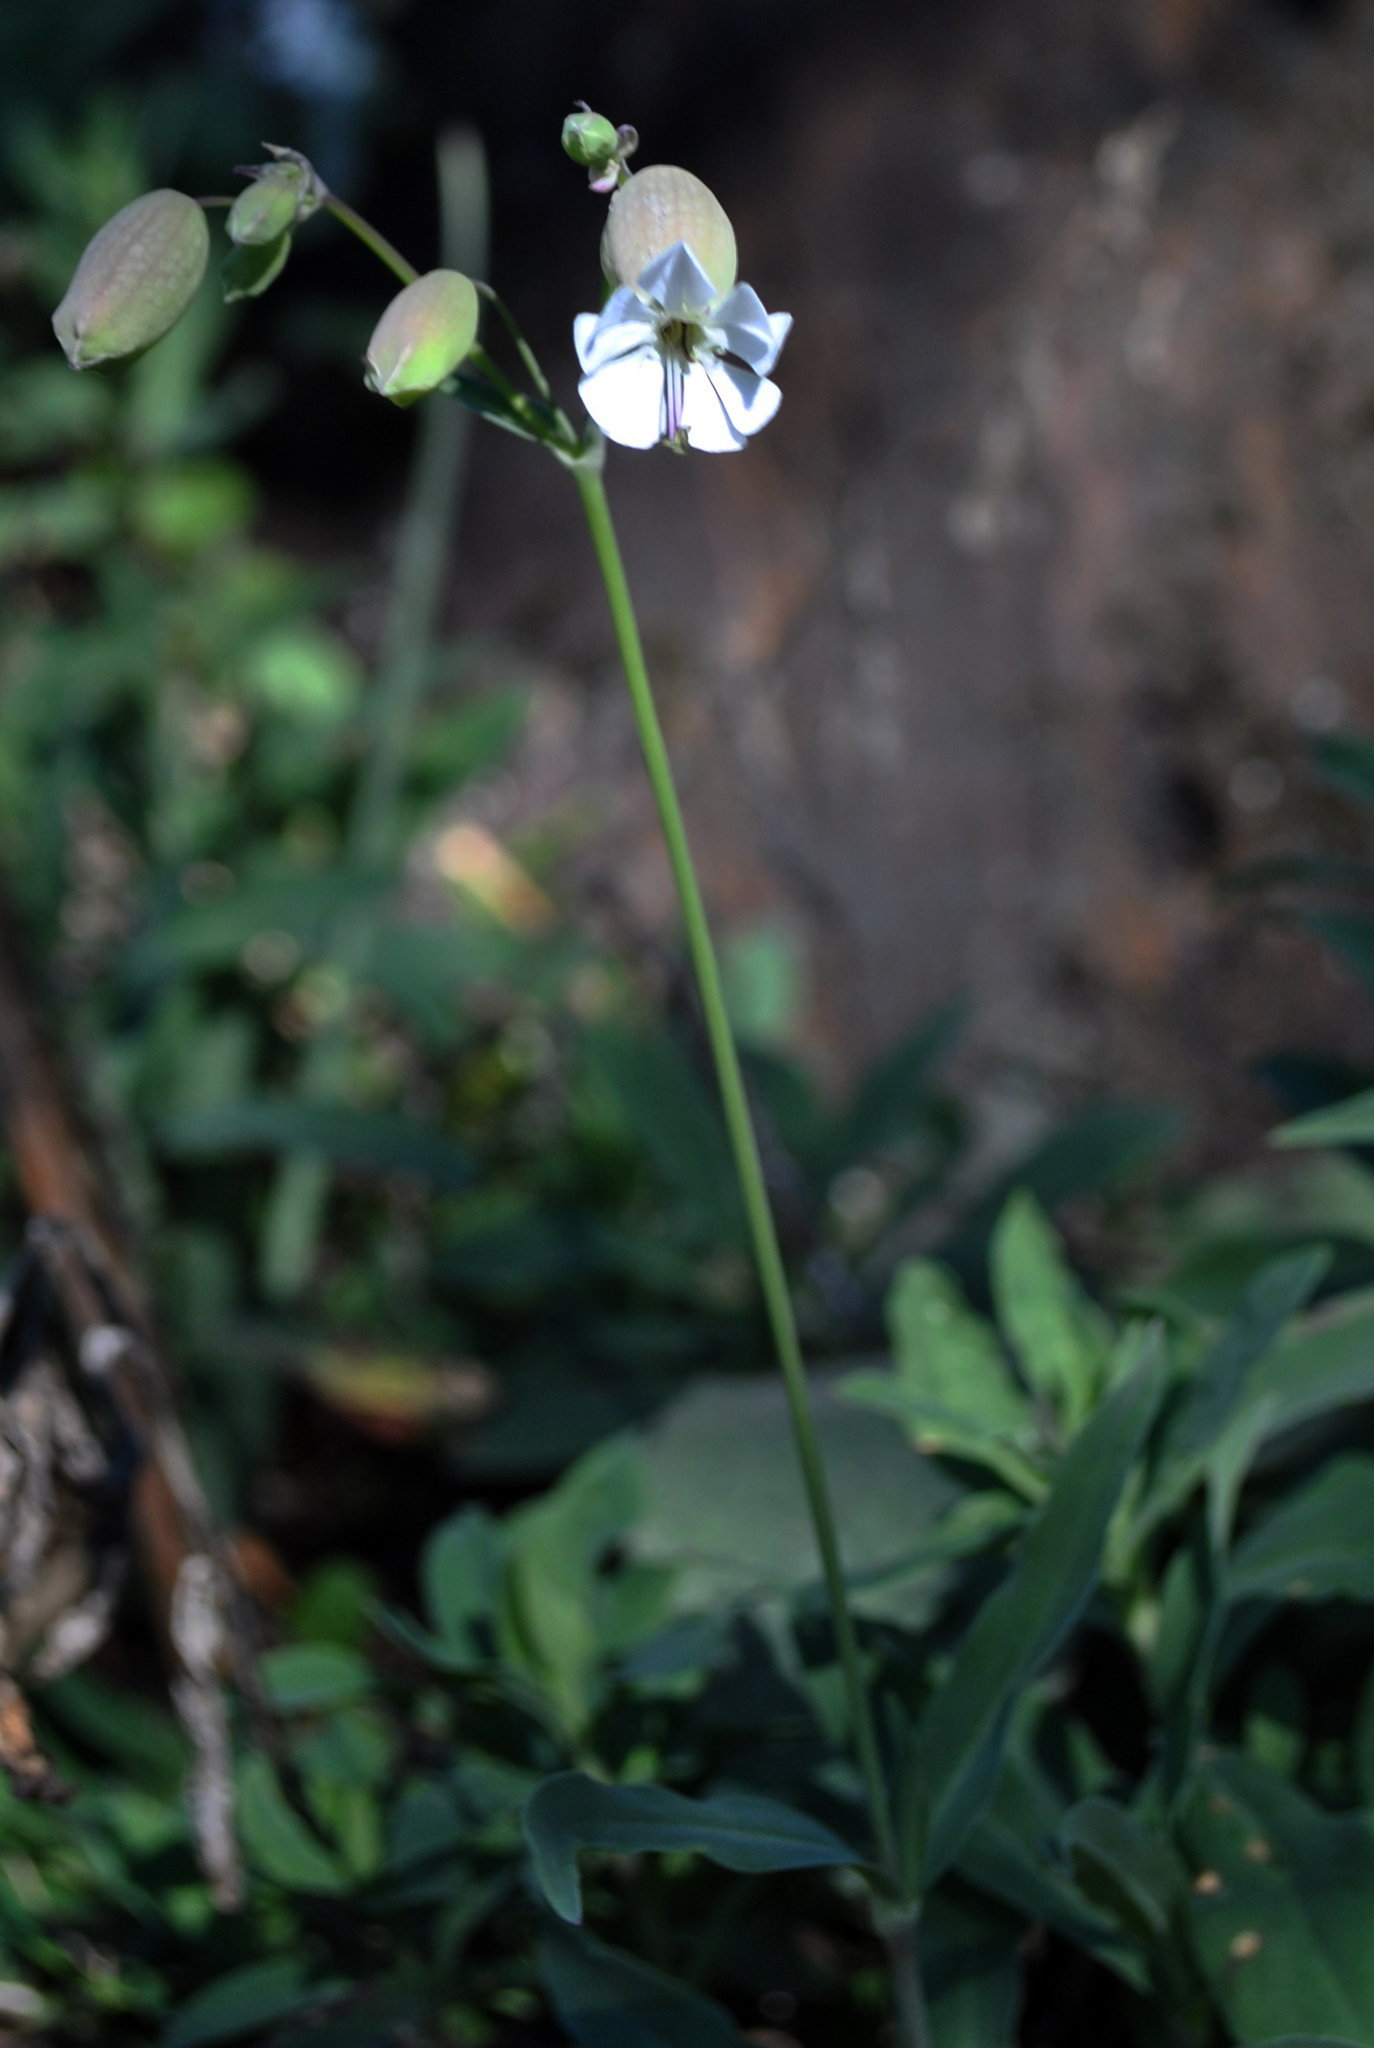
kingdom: Plantae
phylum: Tracheophyta
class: Magnoliopsida
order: Caryophyllales
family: Caryophyllaceae
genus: Silene
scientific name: Silene vulgaris
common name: Bladder campion
